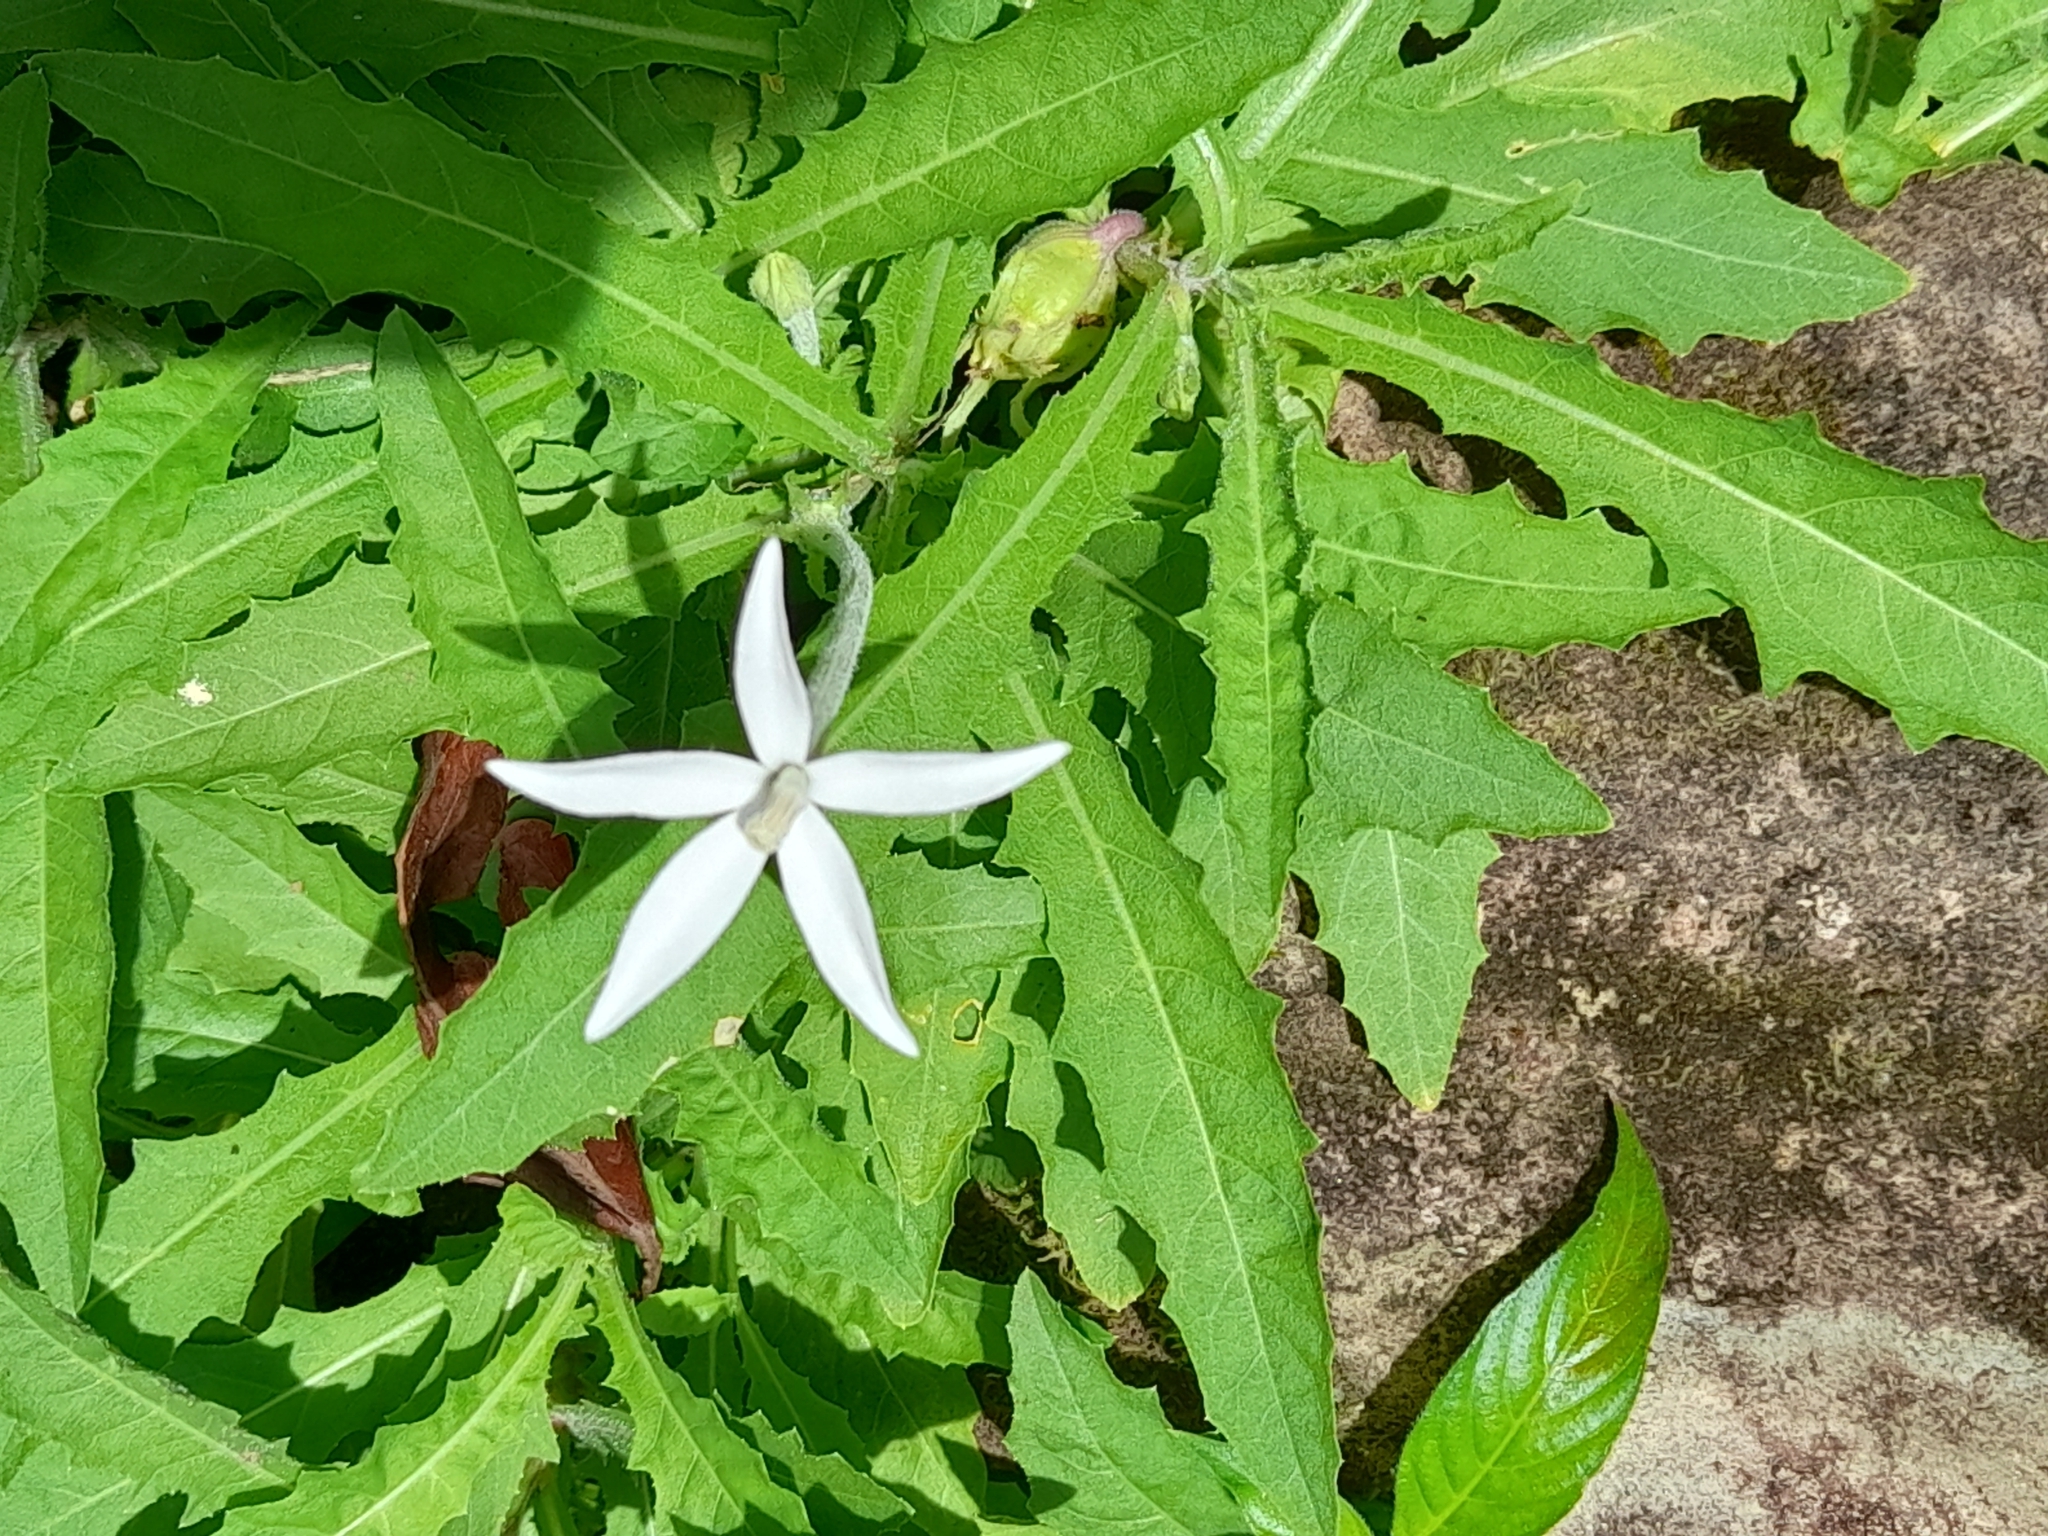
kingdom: Plantae
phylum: Tracheophyta
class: Magnoliopsida
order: Asterales
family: Campanulaceae
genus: Hippobroma
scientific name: Hippobroma longiflora
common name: Madamfate
